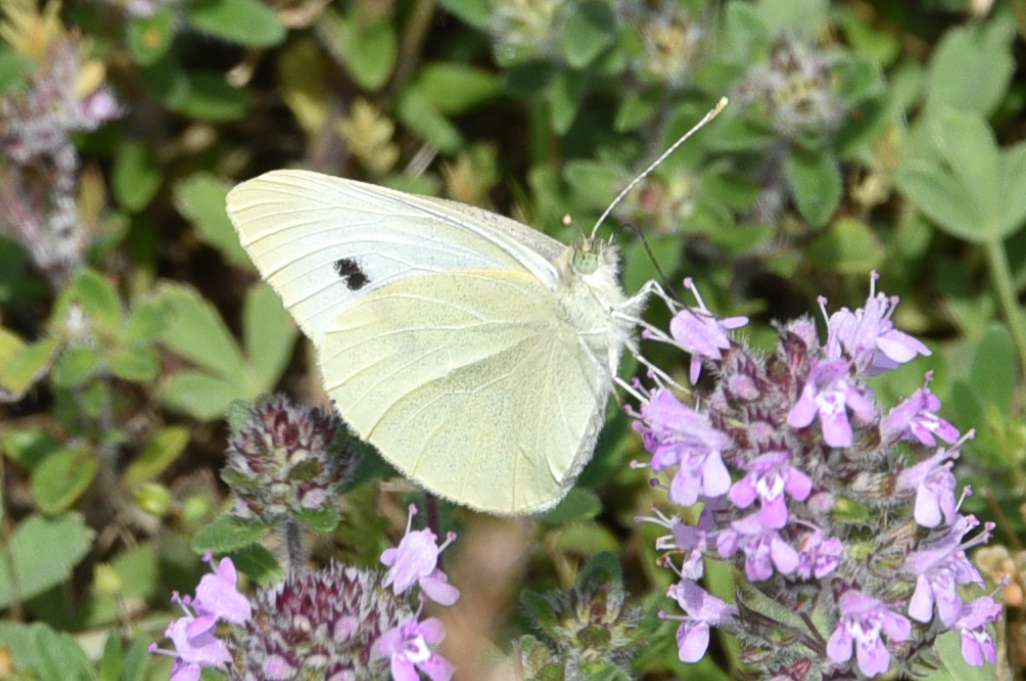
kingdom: Animalia
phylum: Arthropoda
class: Insecta
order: Lepidoptera
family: Pieridae
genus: Pieris
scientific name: Pieris rapae
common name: Small white
